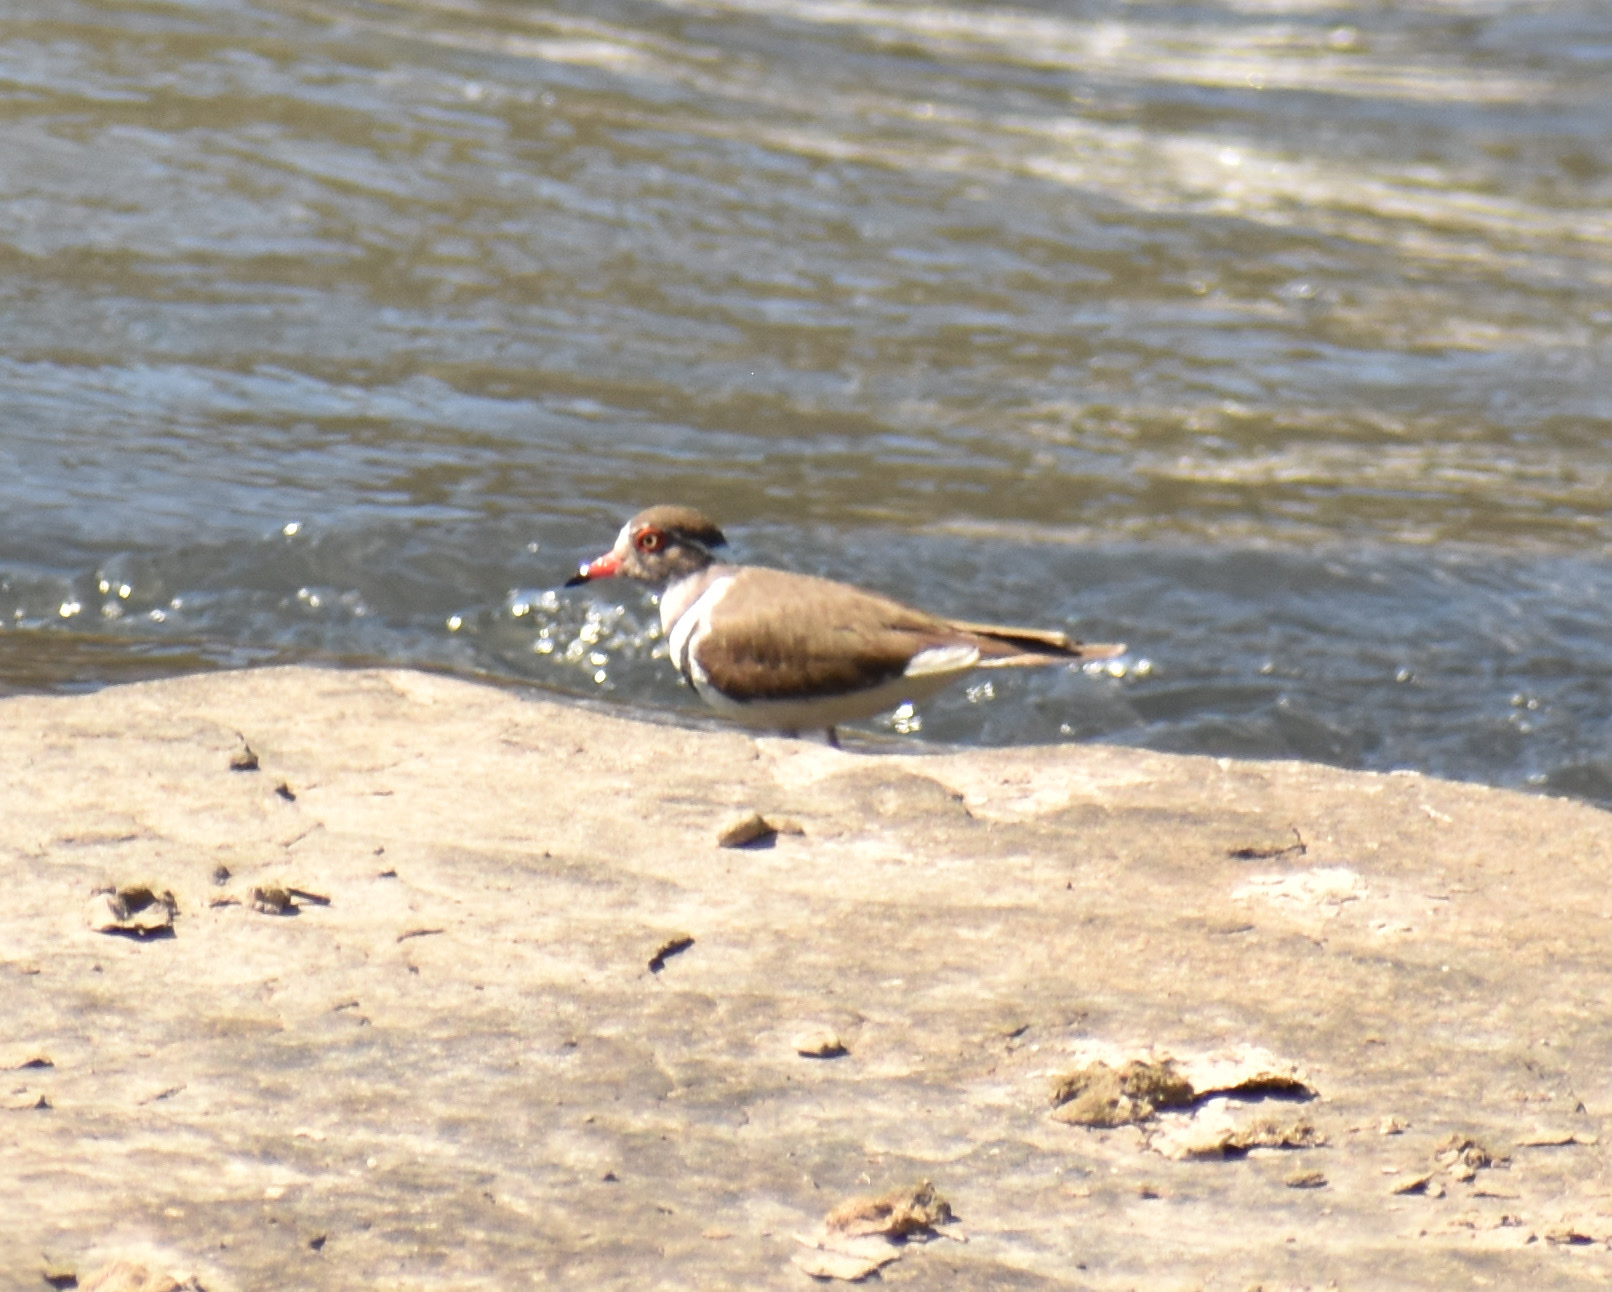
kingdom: Animalia
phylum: Chordata
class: Aves
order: Charadriiformes
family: Charadriidae
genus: Charadrius
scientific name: Charadrius tricollaris
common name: Three-banded plover
